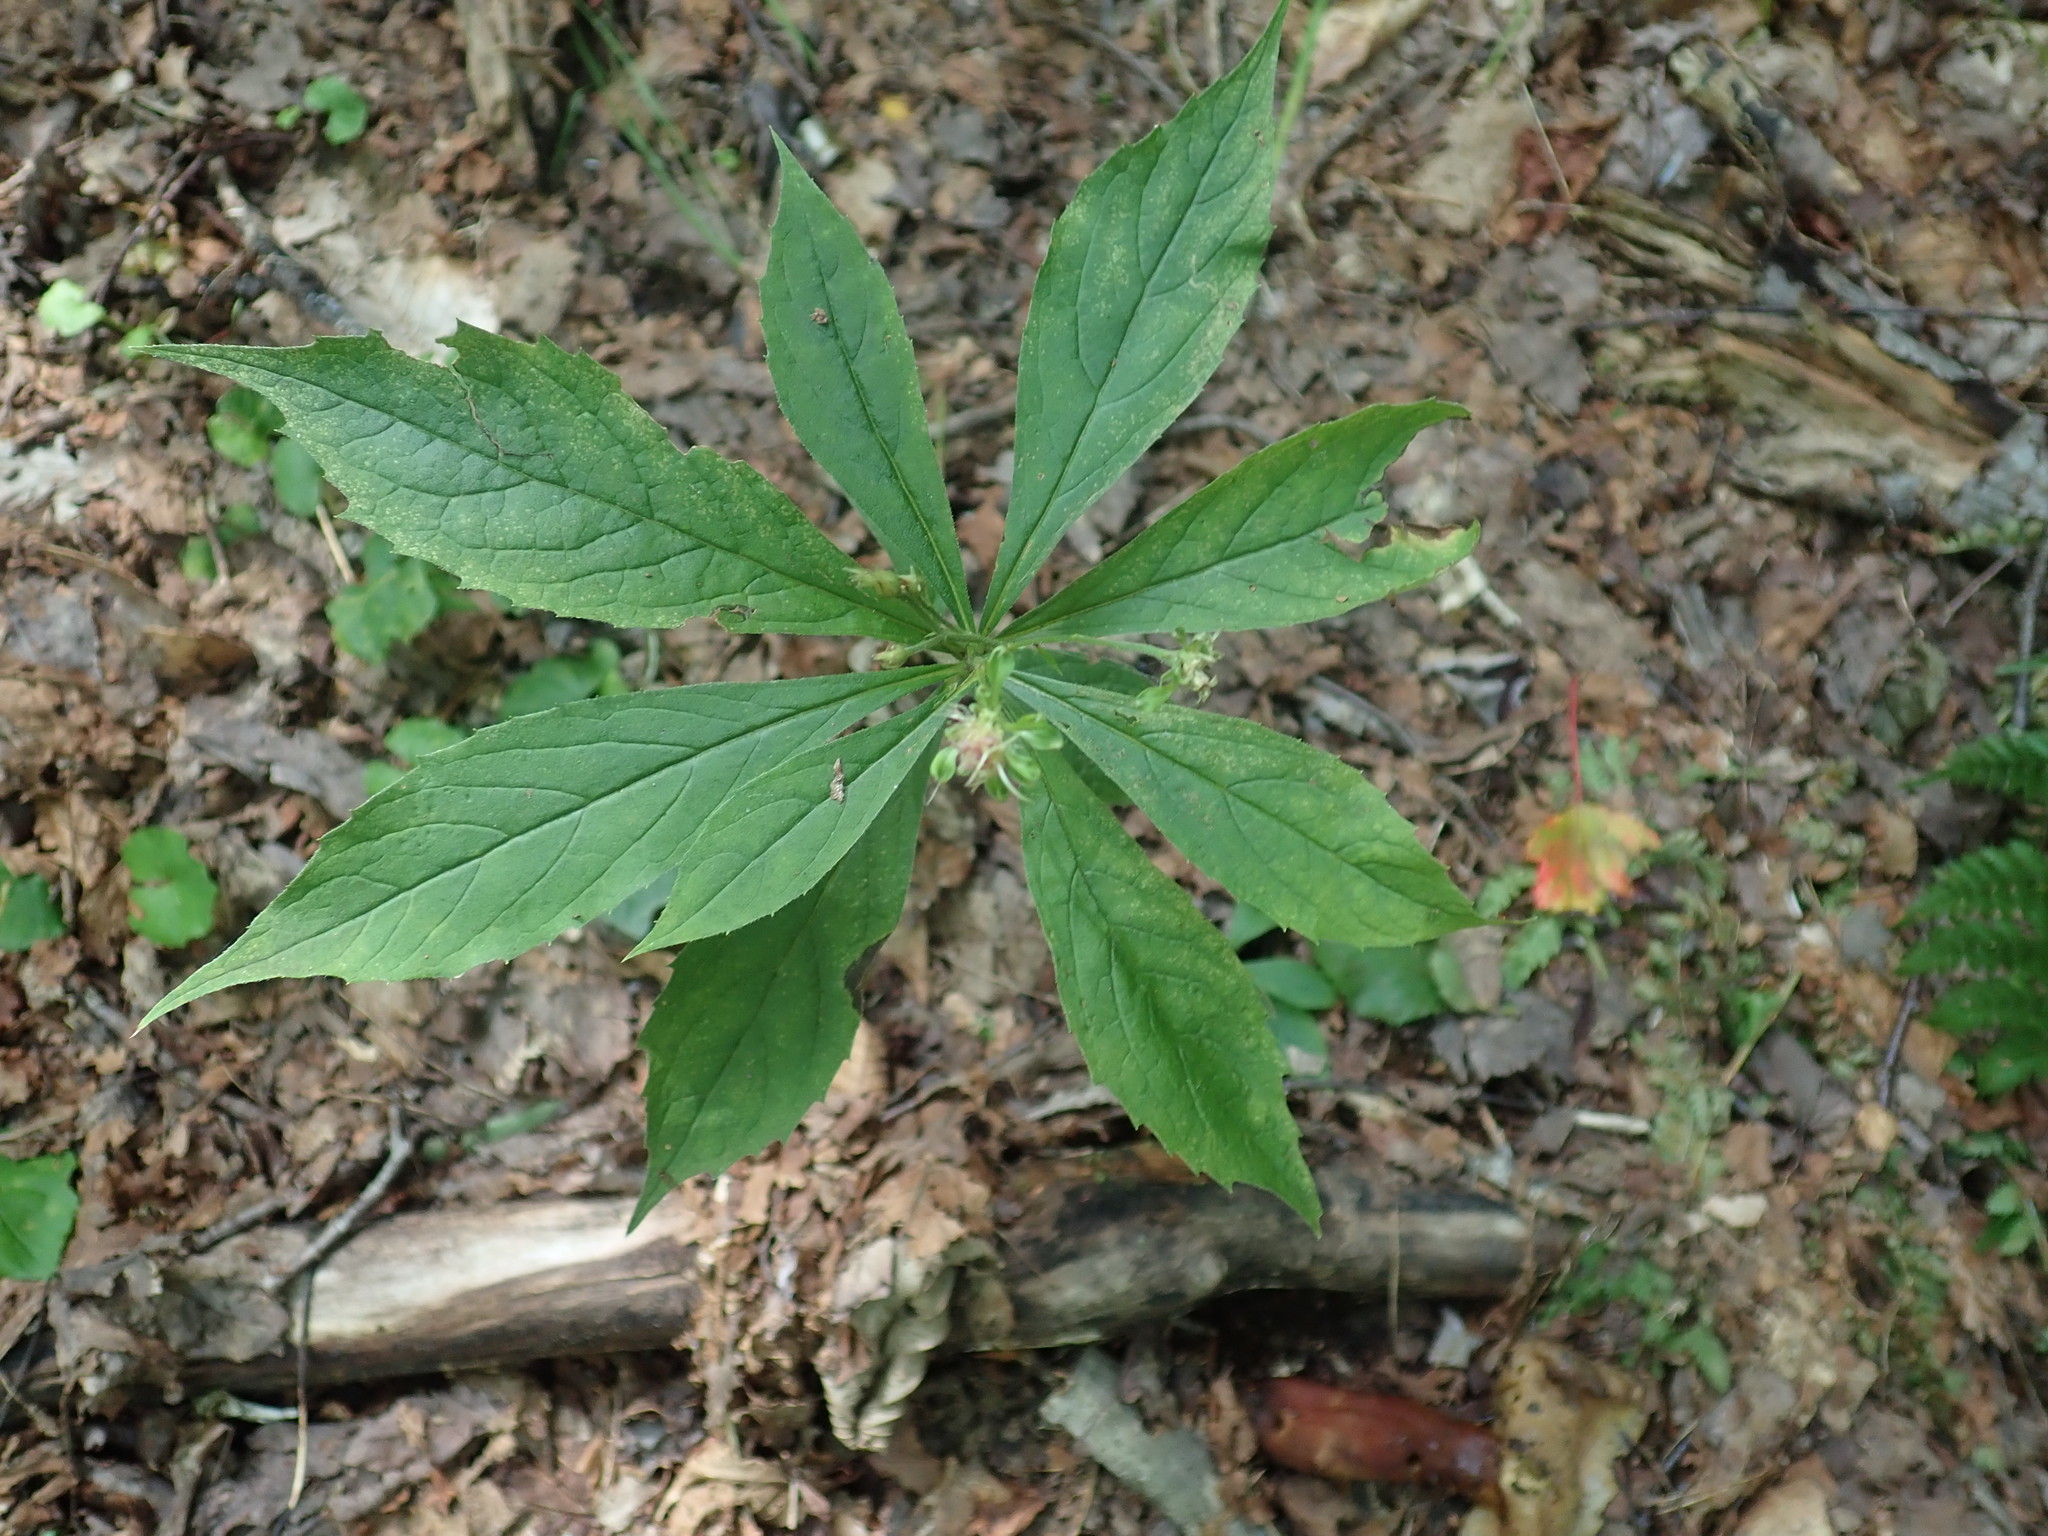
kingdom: Plantae
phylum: Tracheophyta
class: Magnoliopsida
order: Asterales
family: Asteraceae
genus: Oclemena
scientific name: Oclemena acuminata
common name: Mountain aster
